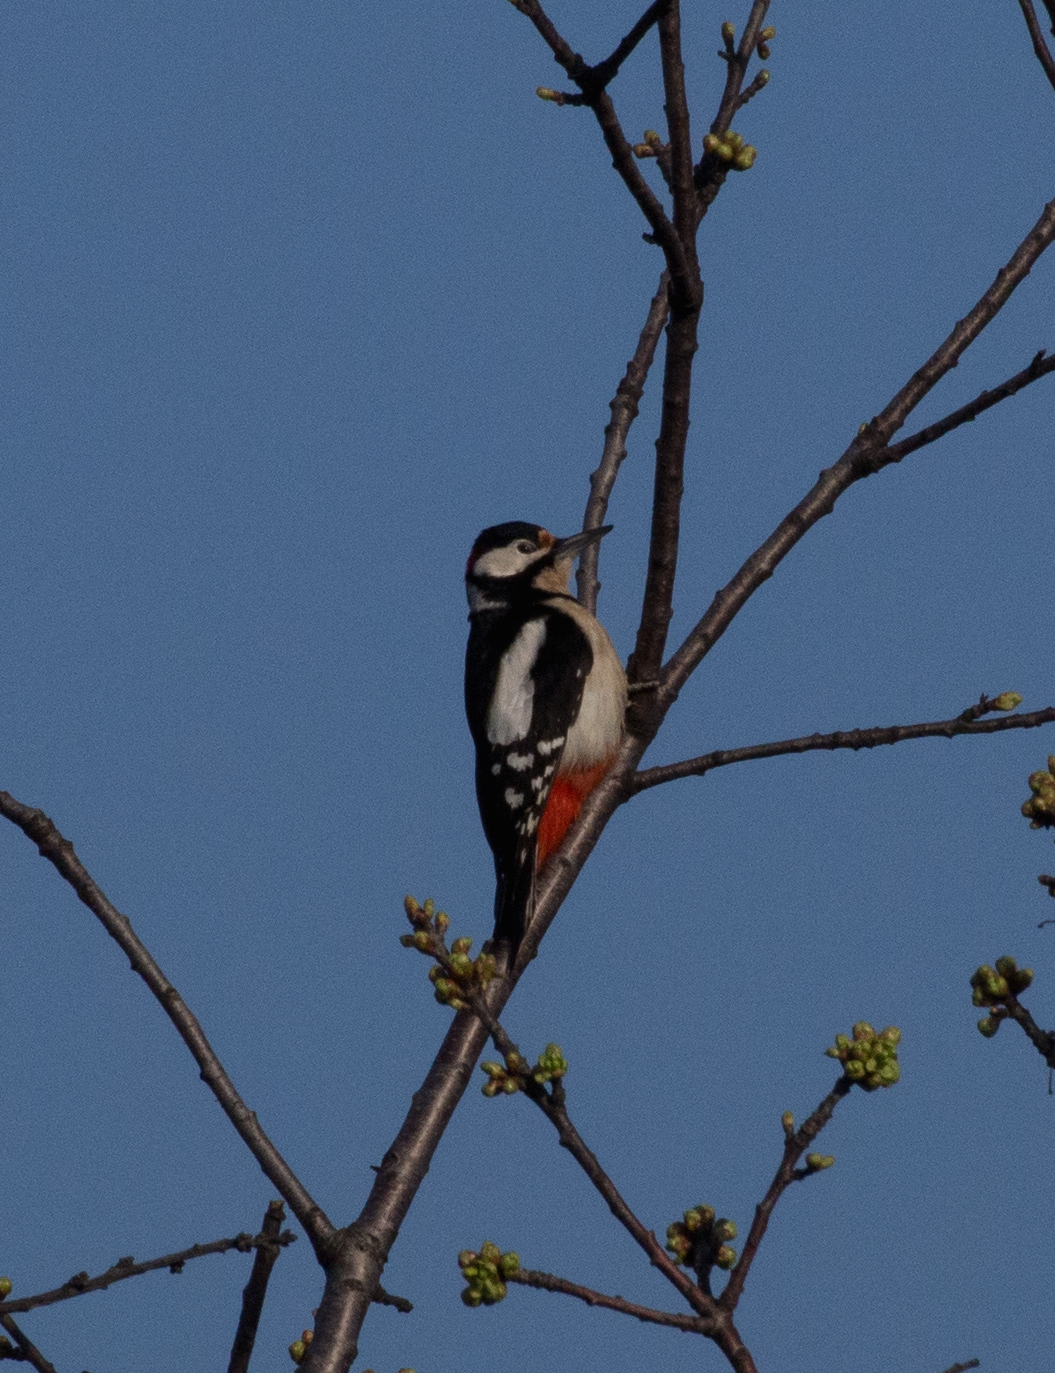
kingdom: Animalia
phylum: Chordata
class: Aves
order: Piciformes
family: Picidae
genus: Dendrocopos
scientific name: Dendrocopos major
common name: Great spotted woodpecker
